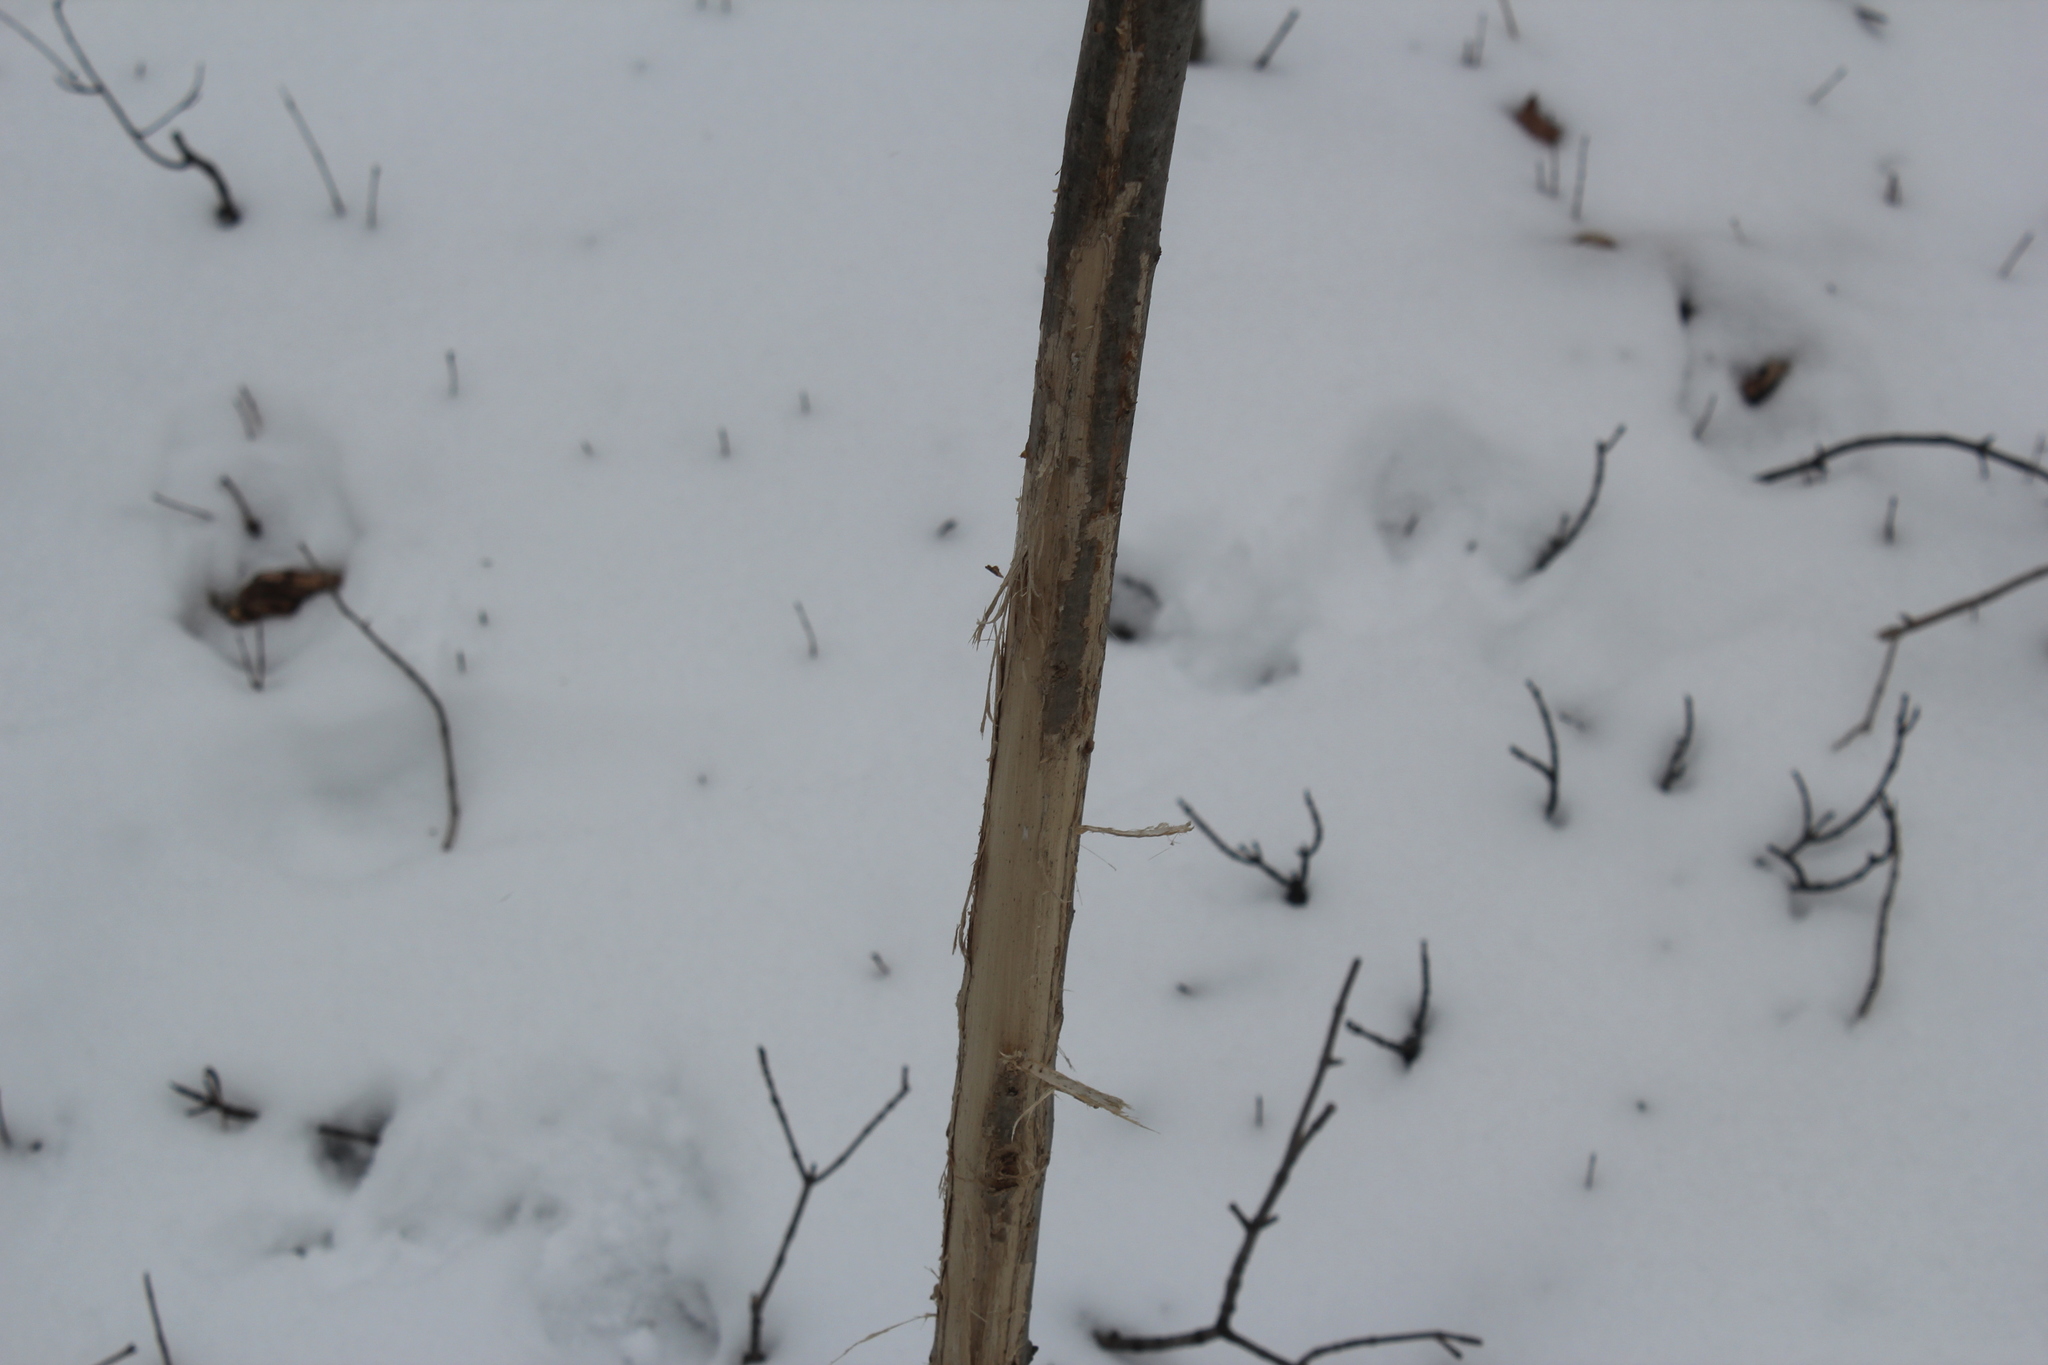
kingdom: Animalia
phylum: Chordata
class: Mammalia
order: Artiodactyla
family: Cervidae
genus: Odocoileus
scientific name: Odocoileus virginianus
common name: White-tailed deer
